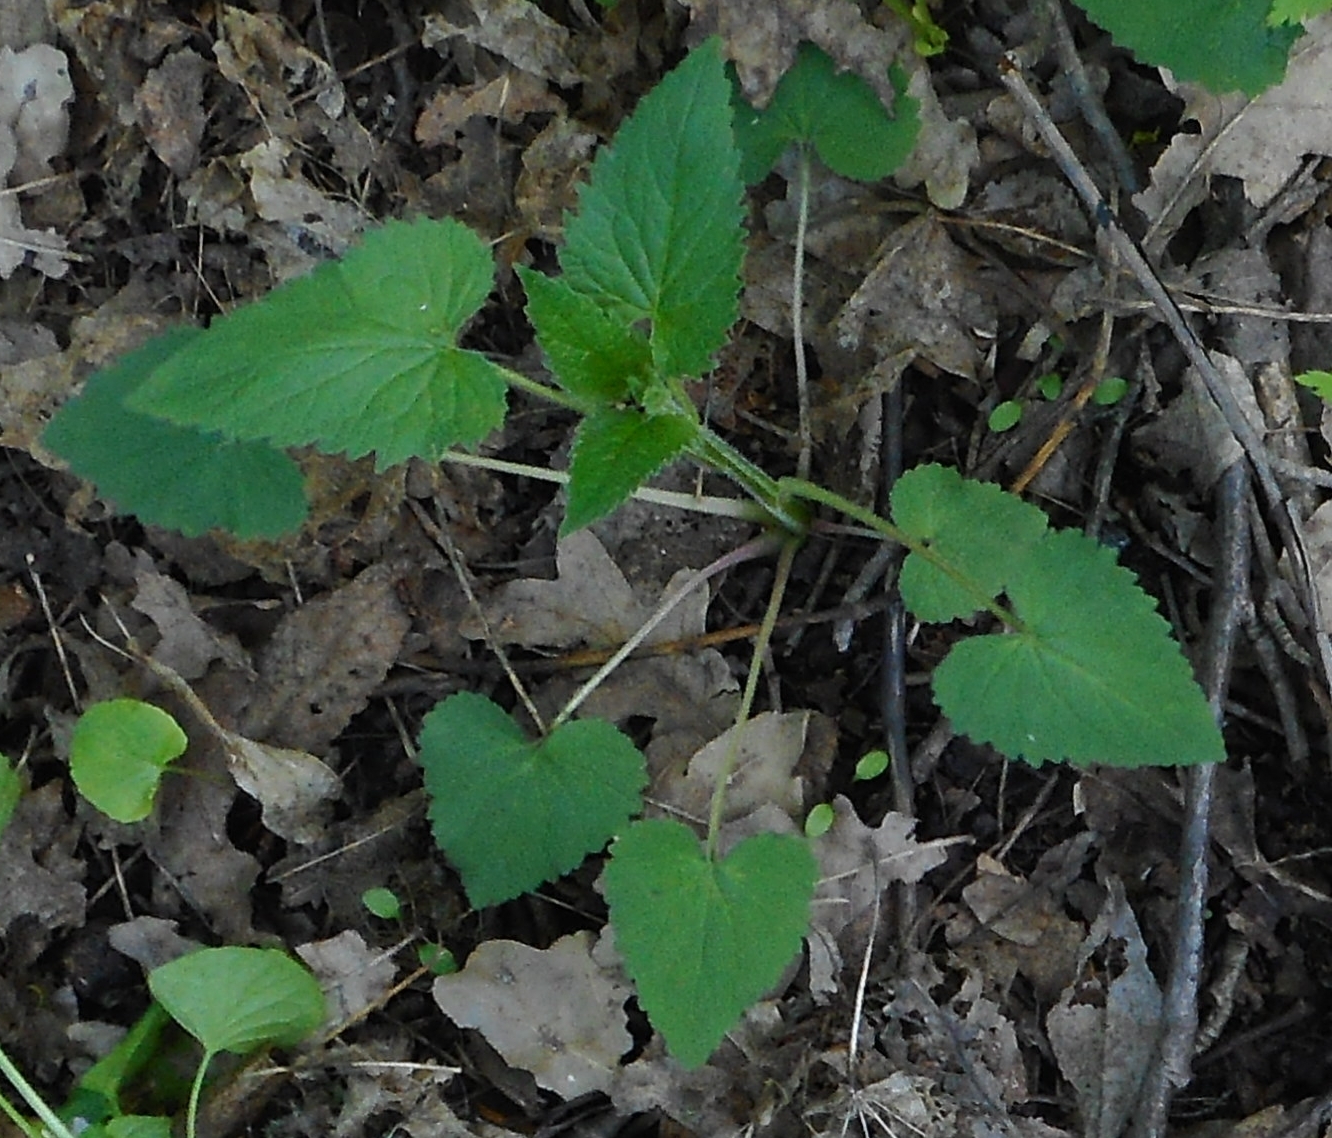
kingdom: Plantae
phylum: Tracheophyta
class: Magnoliopsida
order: Asterales
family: Campanulaceae
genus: Campanula
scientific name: Campanula trachelium
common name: Nettle-leaved bellflower
